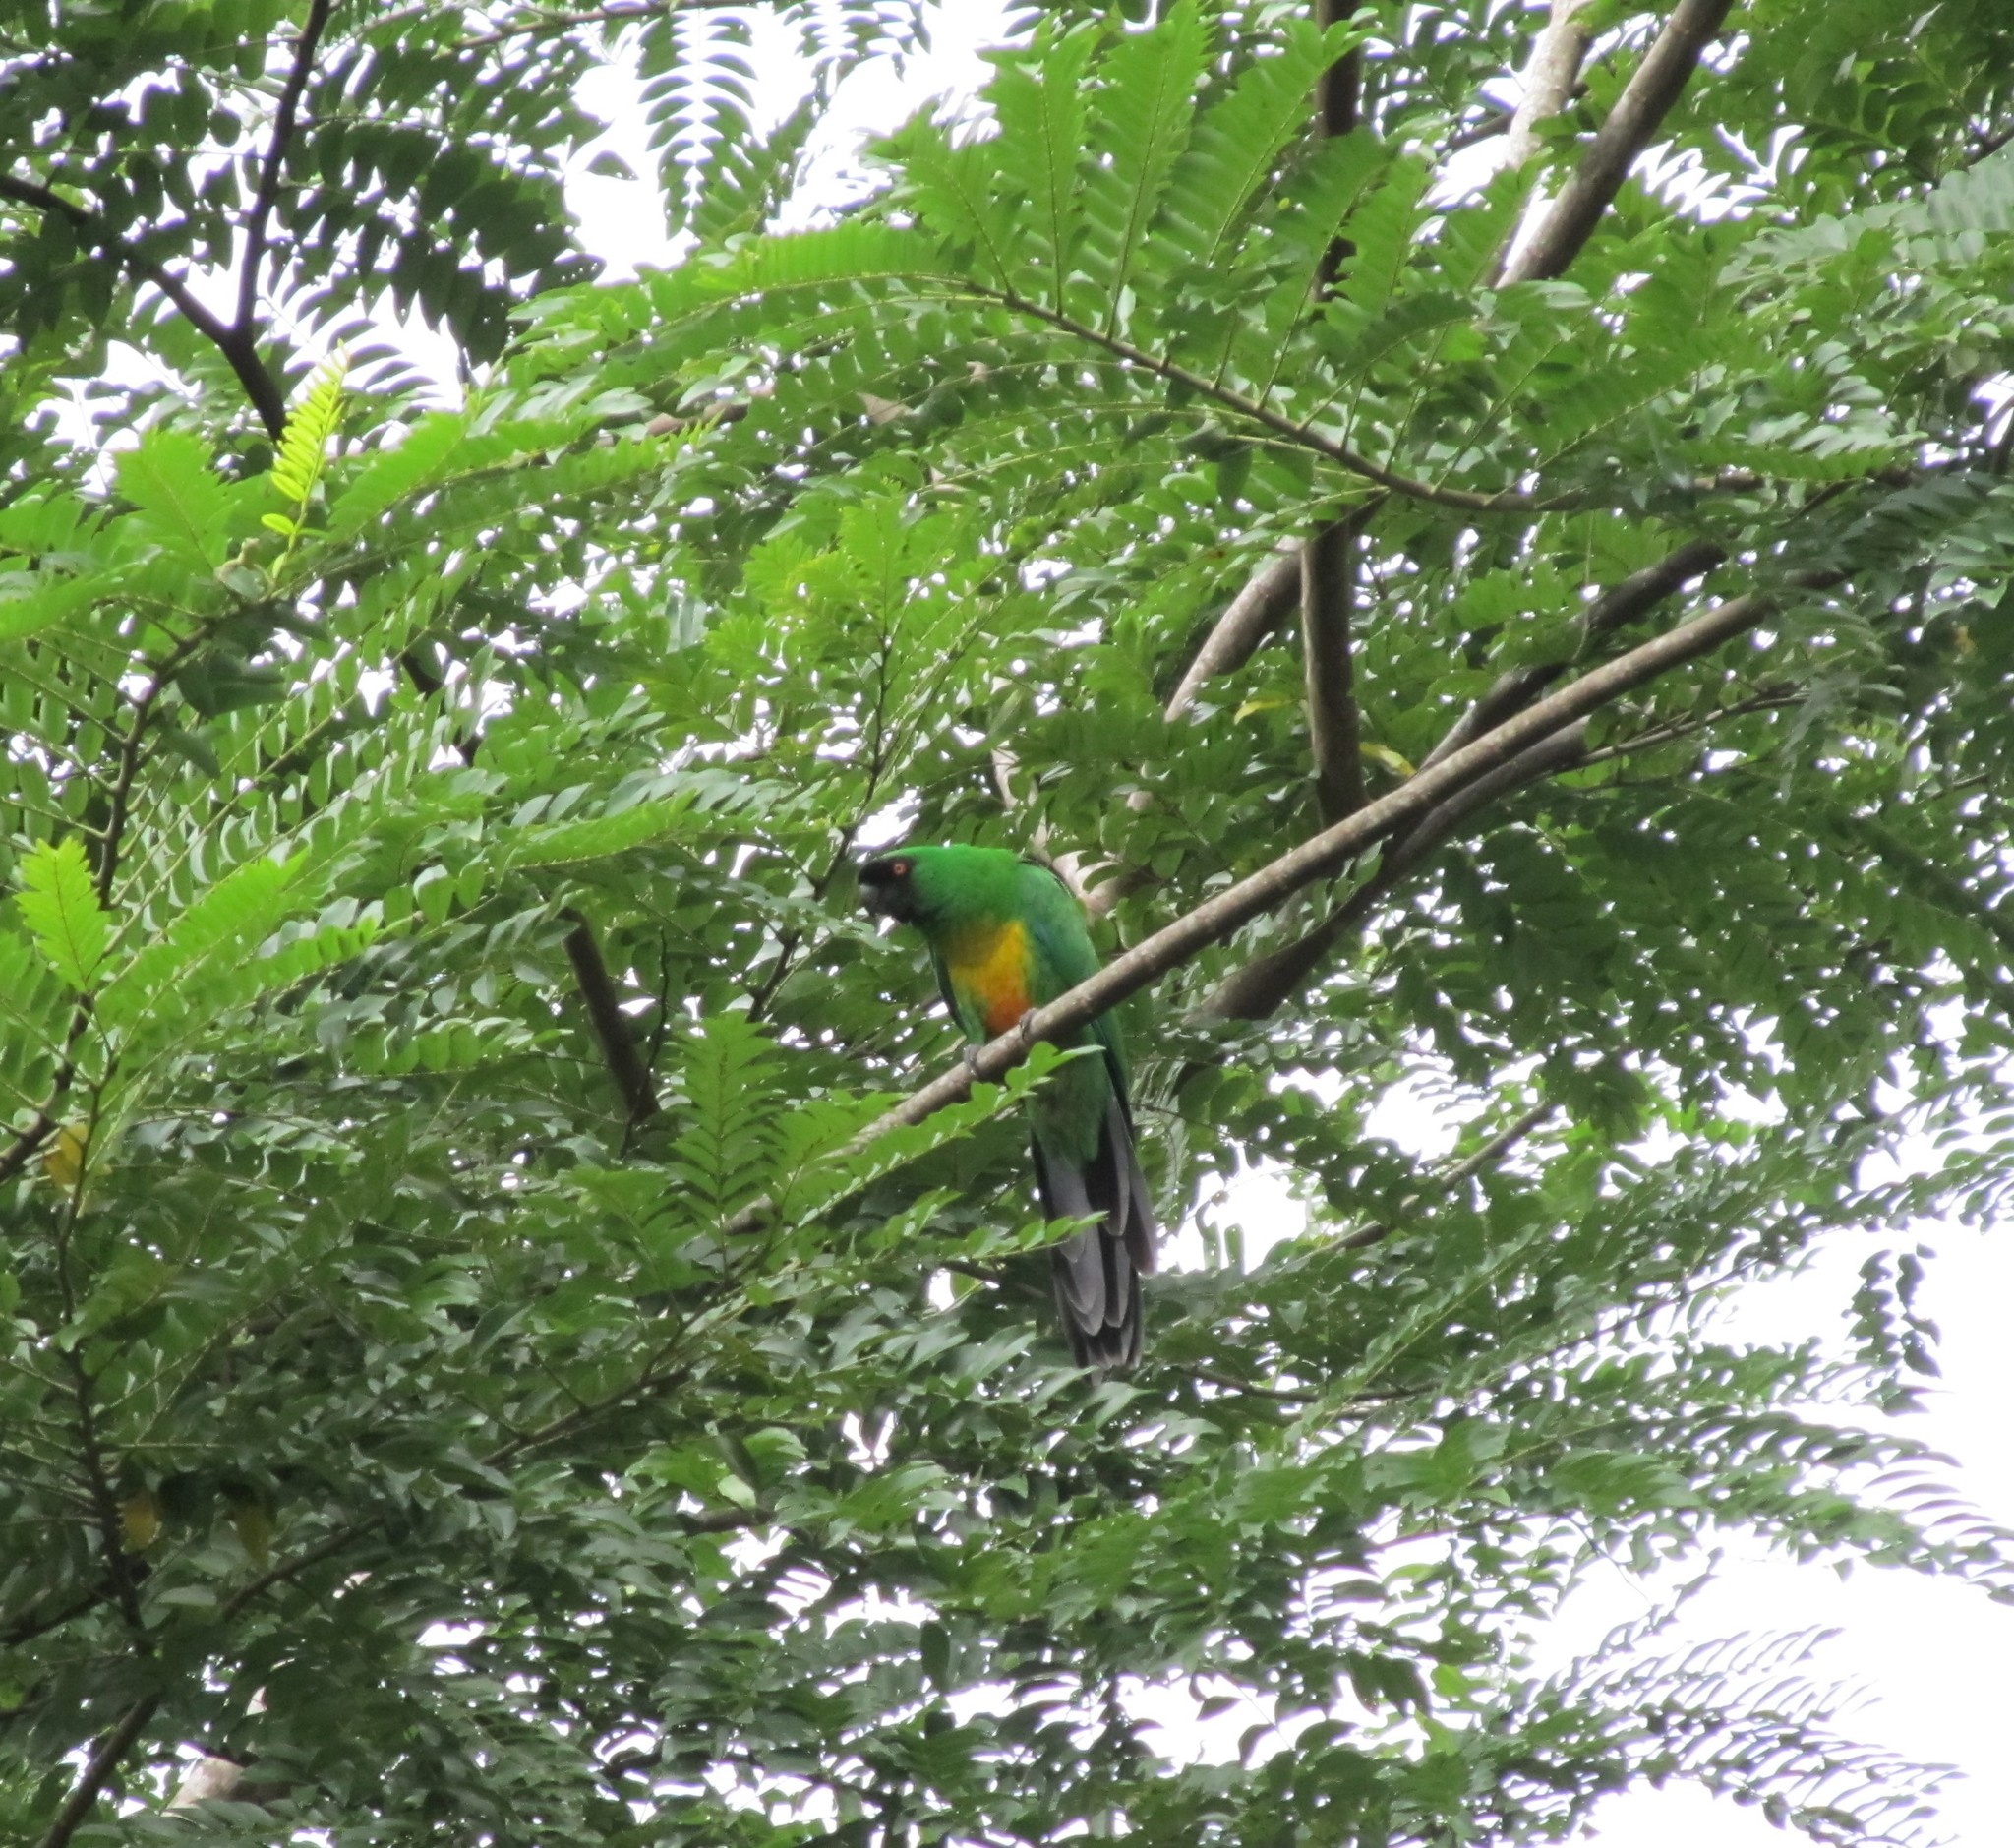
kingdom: Animalia
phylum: Chordata
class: Aves
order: Psittaciformes
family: Psittacidae
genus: Prosopeia
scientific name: Prosopeia personata
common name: Masked shining parrot
